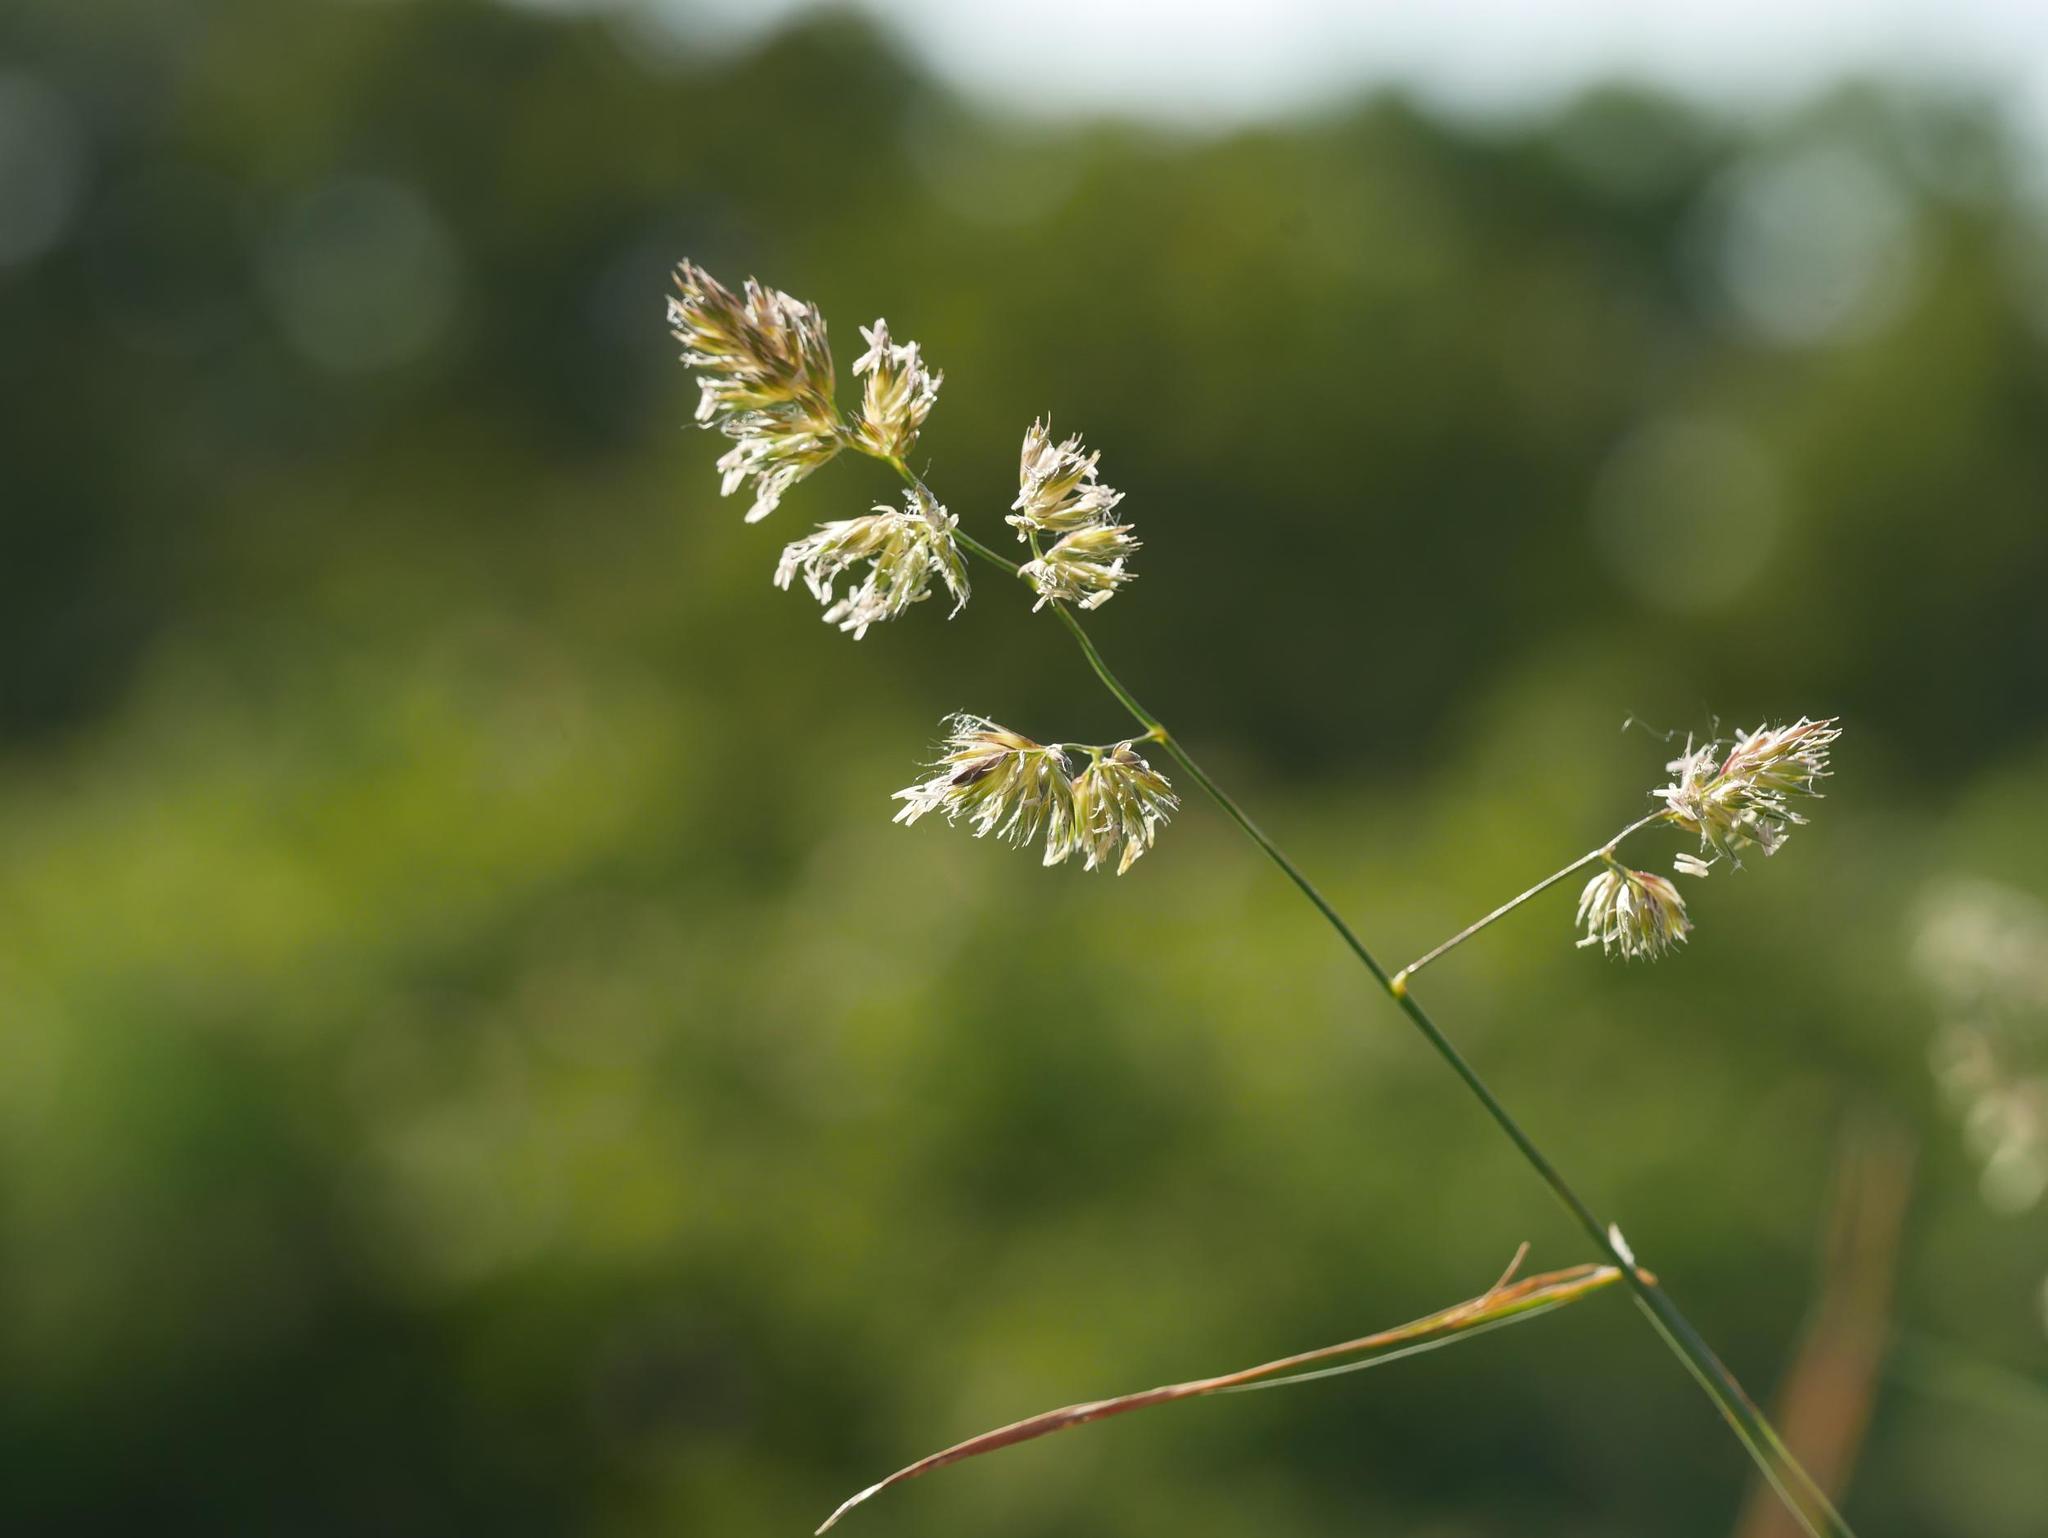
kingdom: Plantae
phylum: Tracheophyta
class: Liliopsida
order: Poales
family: Poaceae
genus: Dactylis
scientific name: Dactylis glomerata
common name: Orchardgrass
